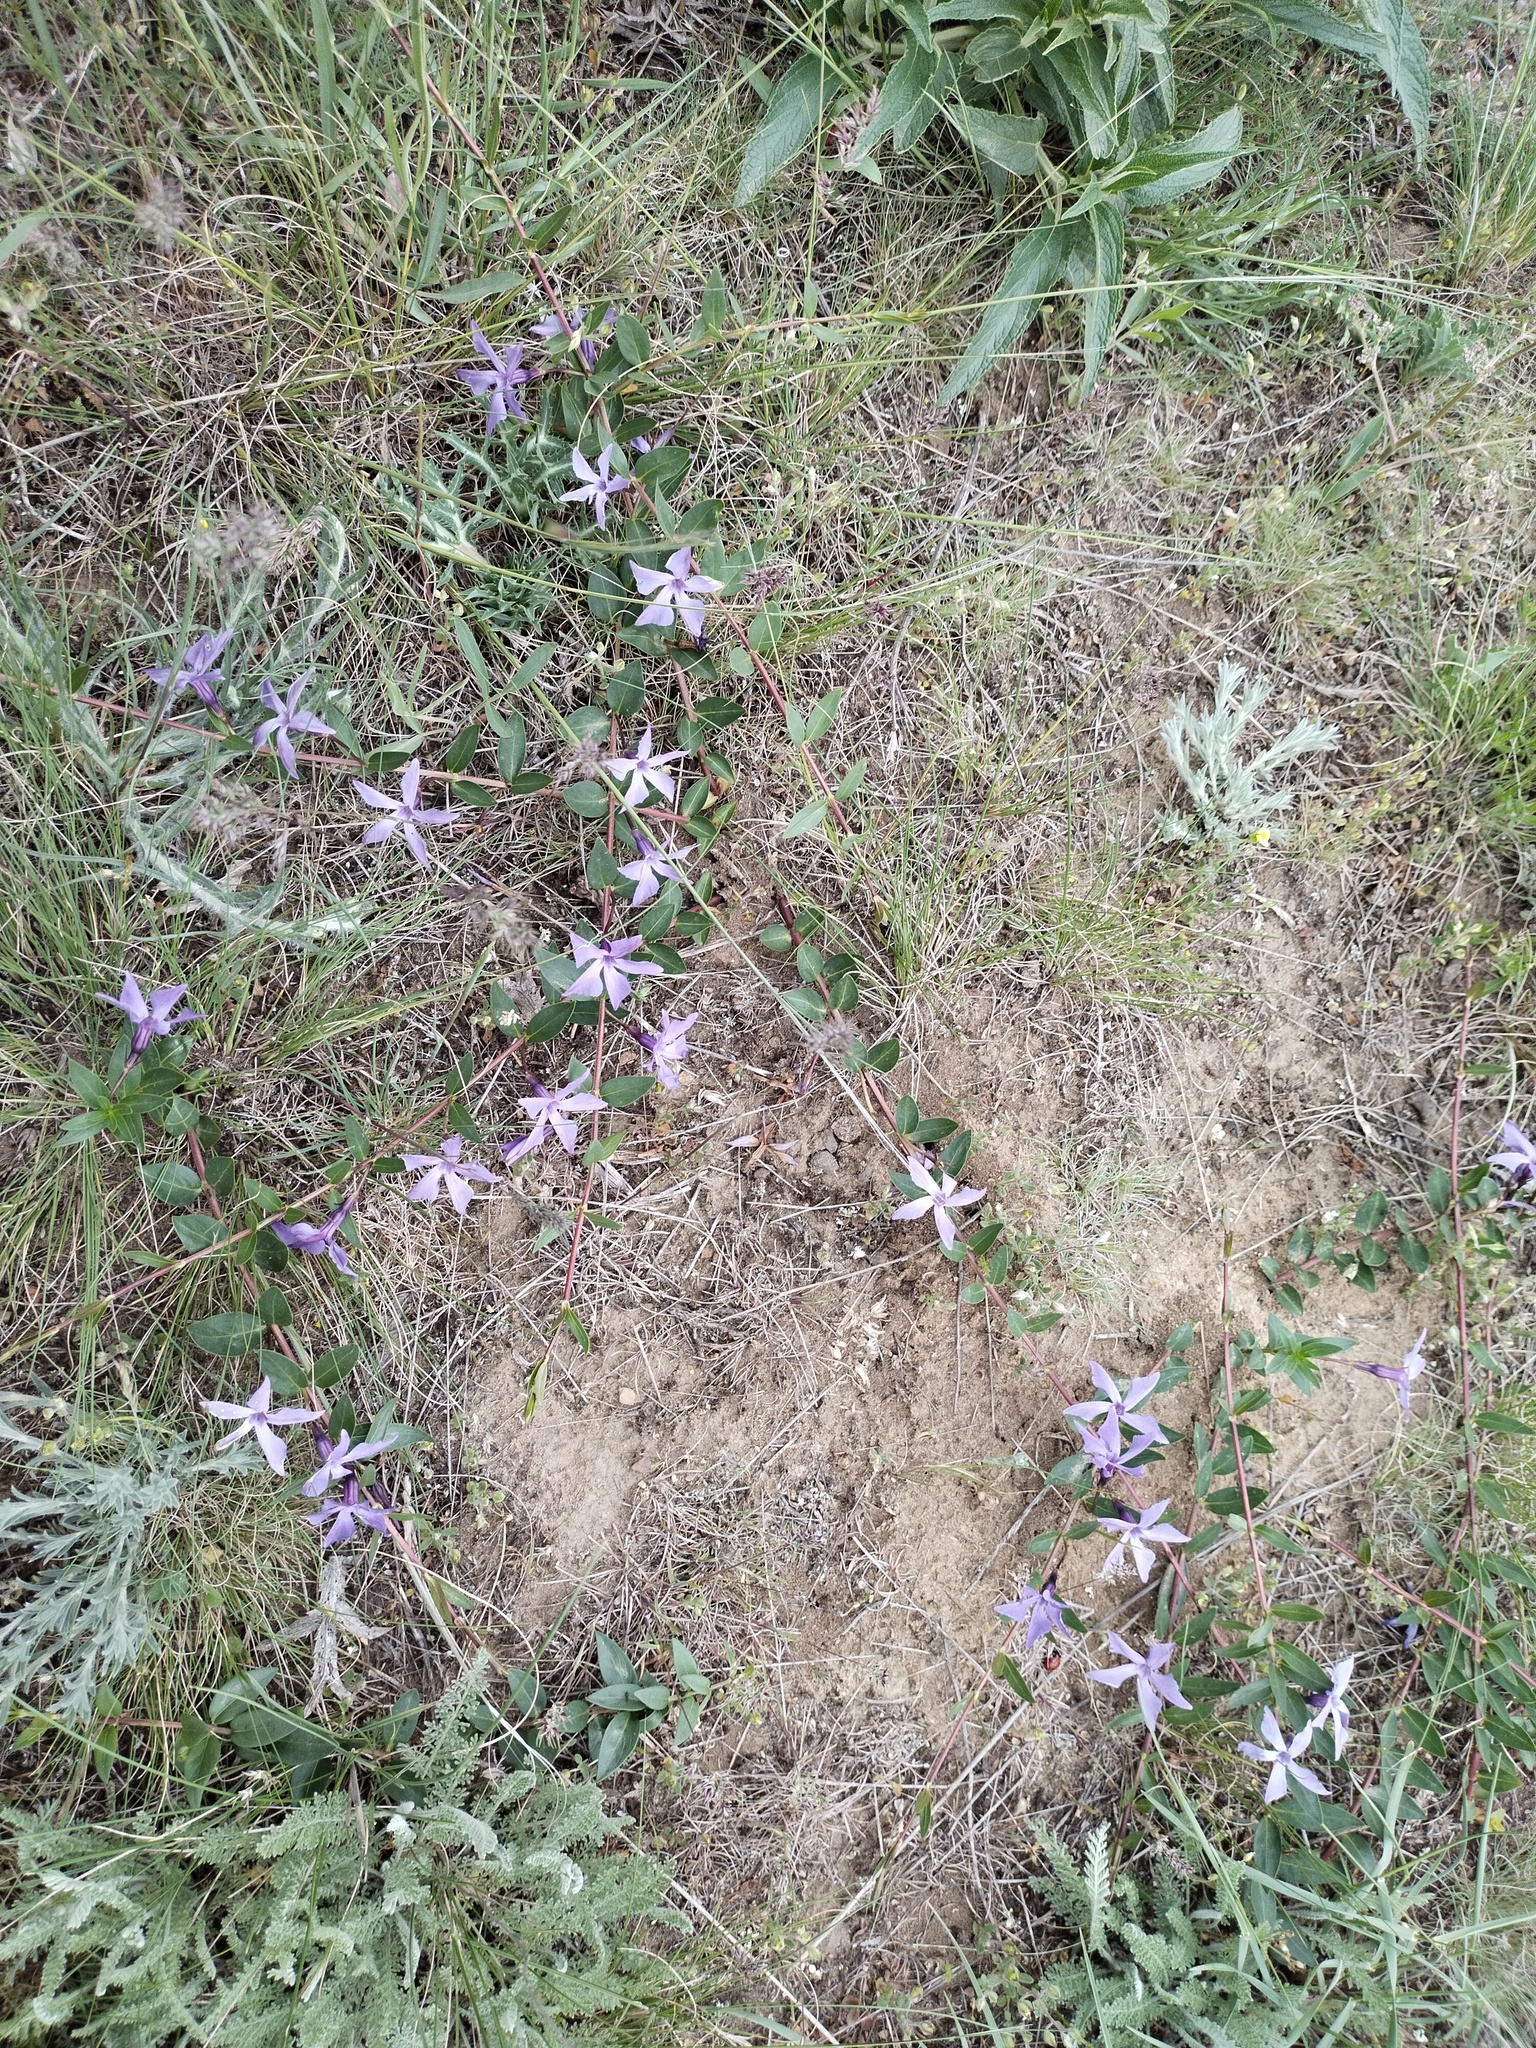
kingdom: Plantae
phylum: Tracheophyta
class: Magnoliopsida
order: Gentianales
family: Apocynaceae
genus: Vinca
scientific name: Vinca herbacea
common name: Herbaceous periwinkle
